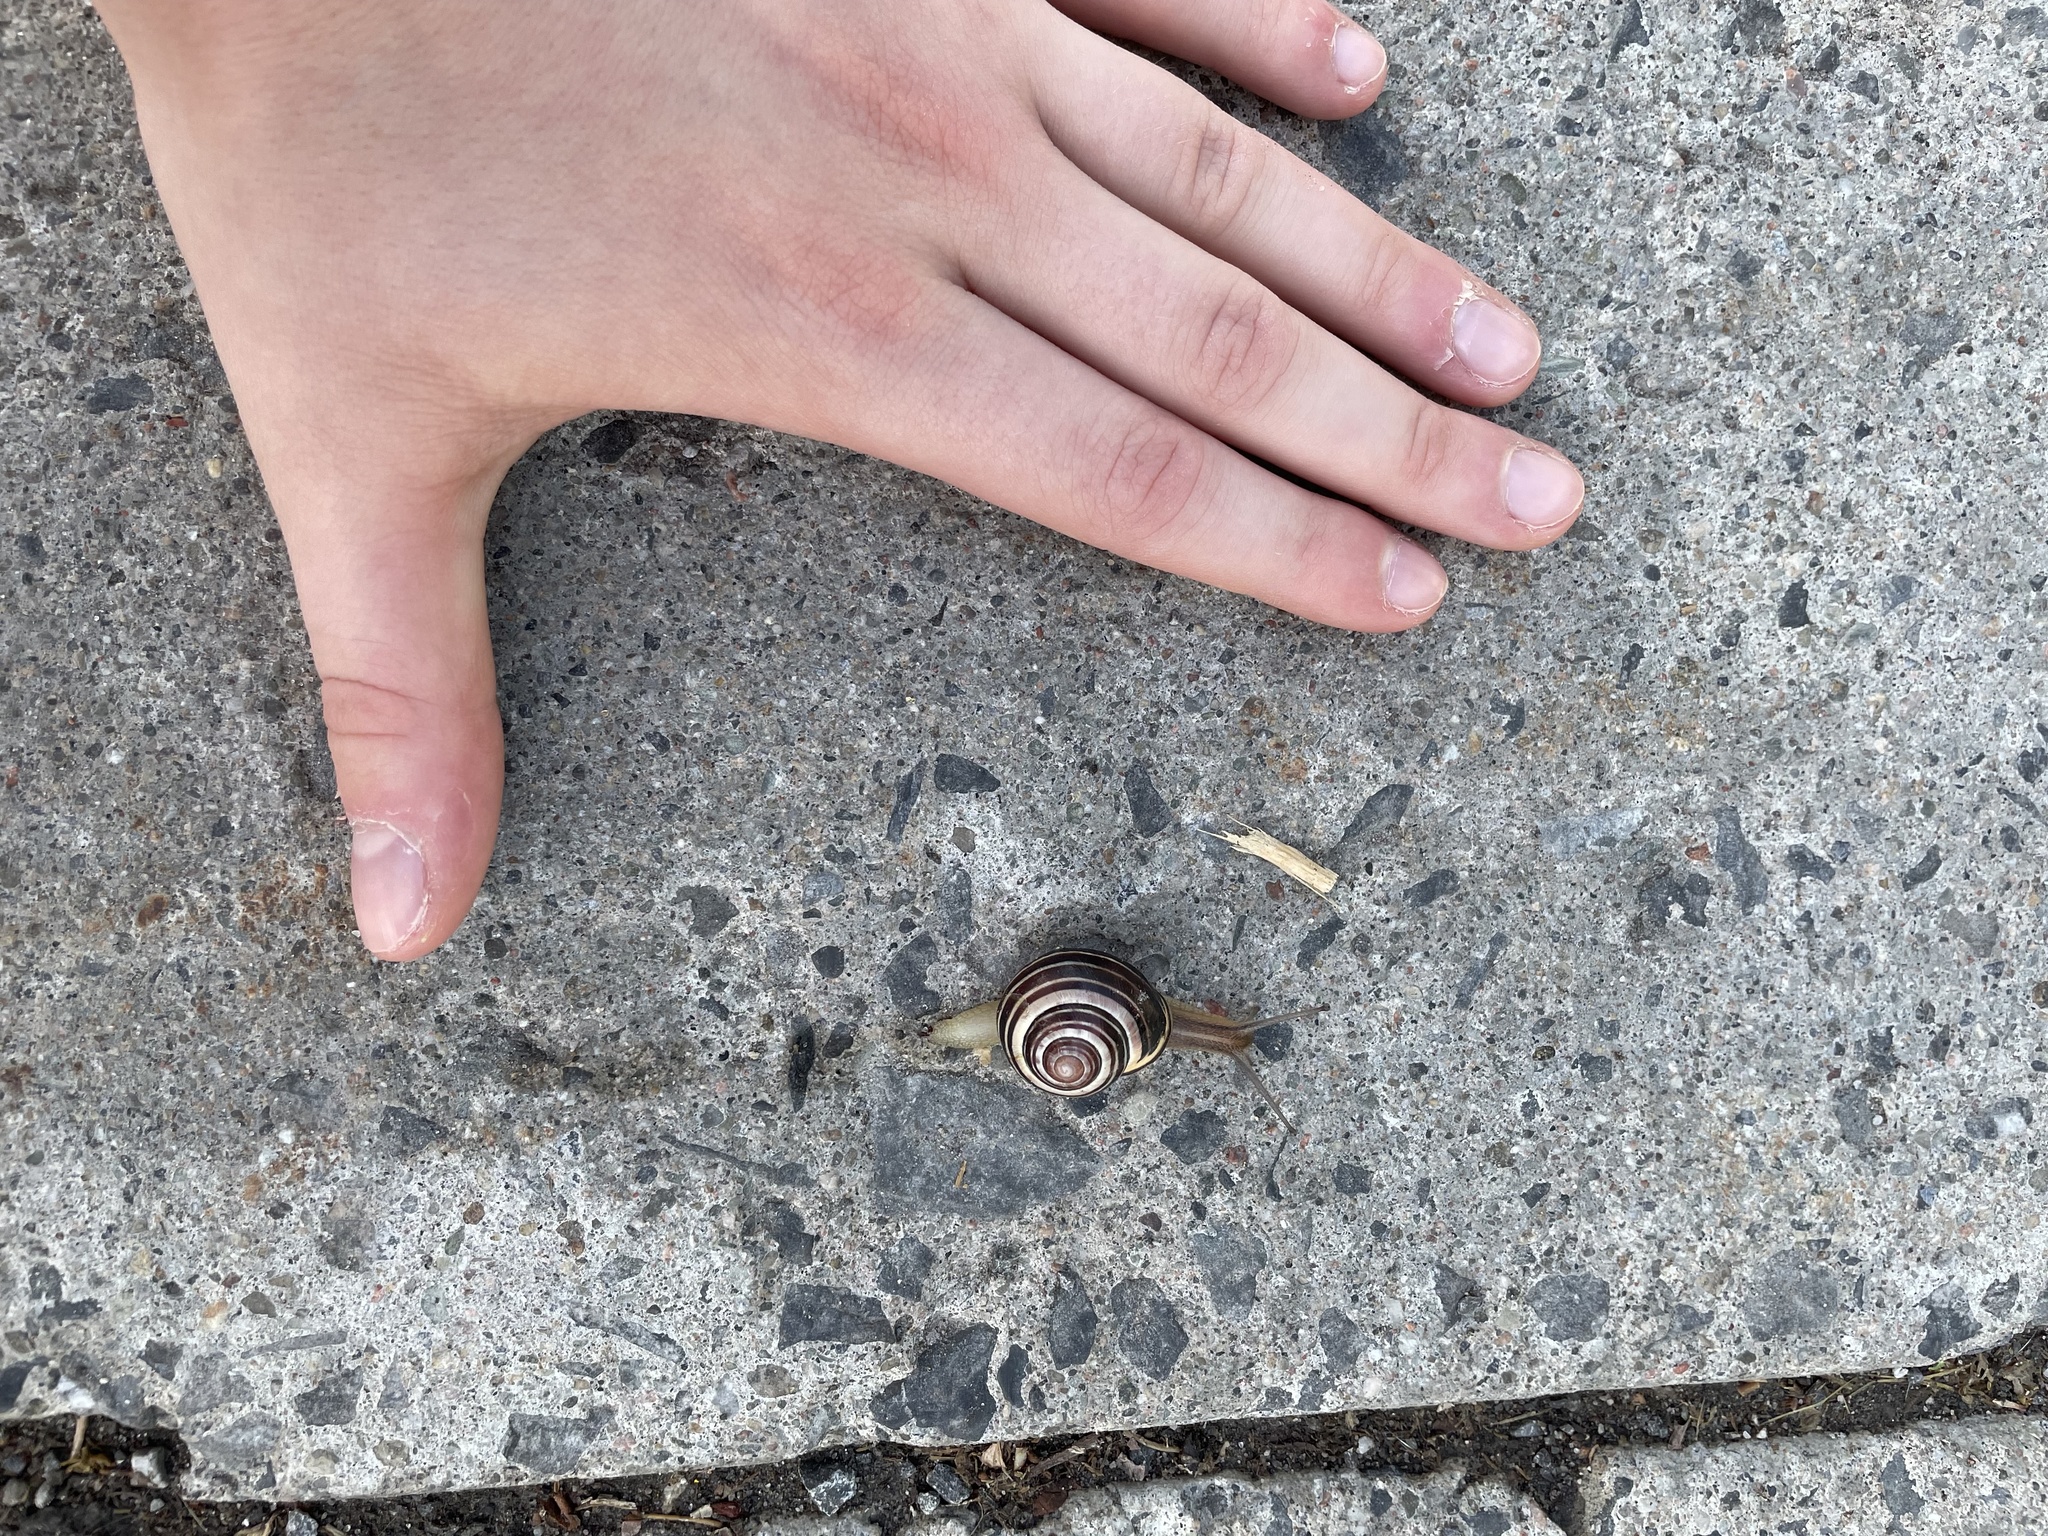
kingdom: Animalia
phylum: Mollusca
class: Gastropoda
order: Stylommatophora
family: Helicidae
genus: Cepaea
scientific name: Cepaea nemoralis
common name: Grovesnail
